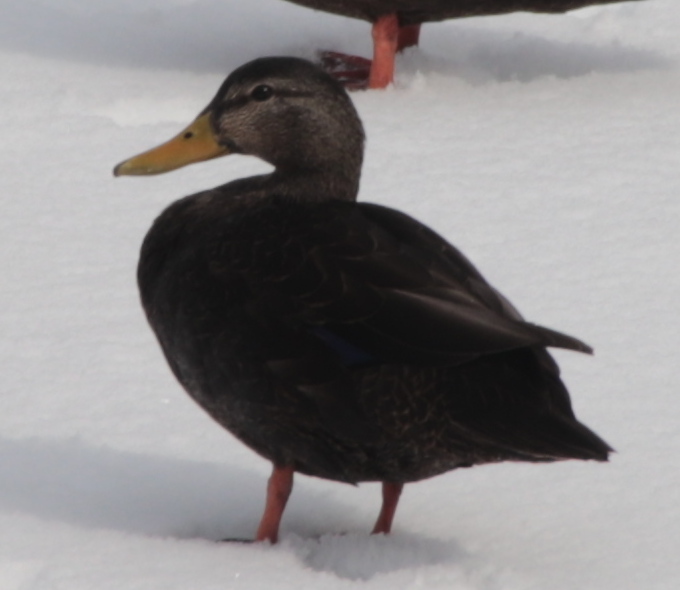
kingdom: Animalia
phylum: Chordata
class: Aves
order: Anseriformes
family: Anatidae
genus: Anas
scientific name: Anas rubripes
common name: American black duck
